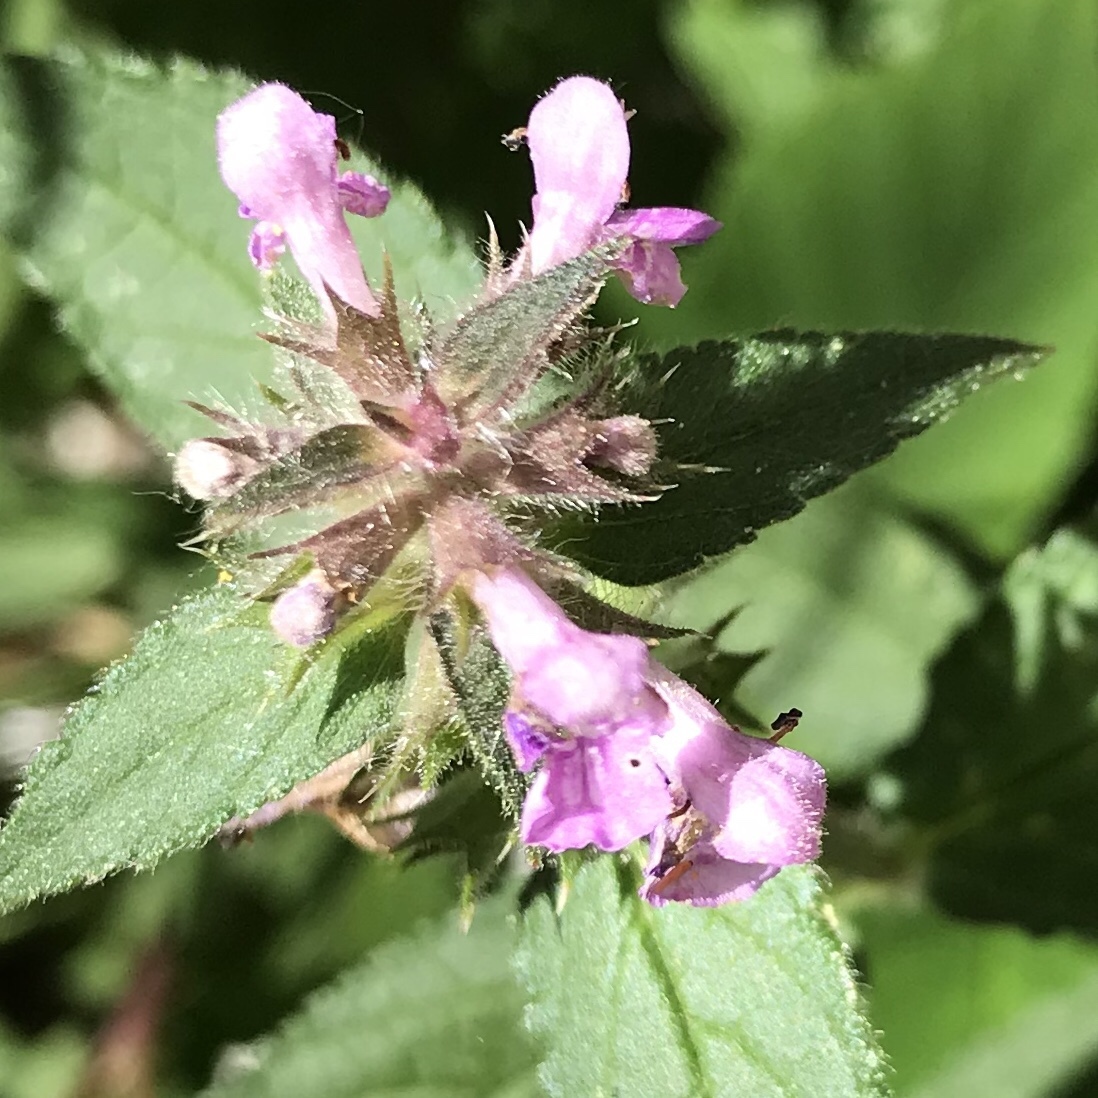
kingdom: Plantae
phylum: Tracheophyta
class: Magnoliopsida
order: Lamiales
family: Lamiaceae
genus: Stachys
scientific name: Stachys palustris
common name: Marsh woundwort
